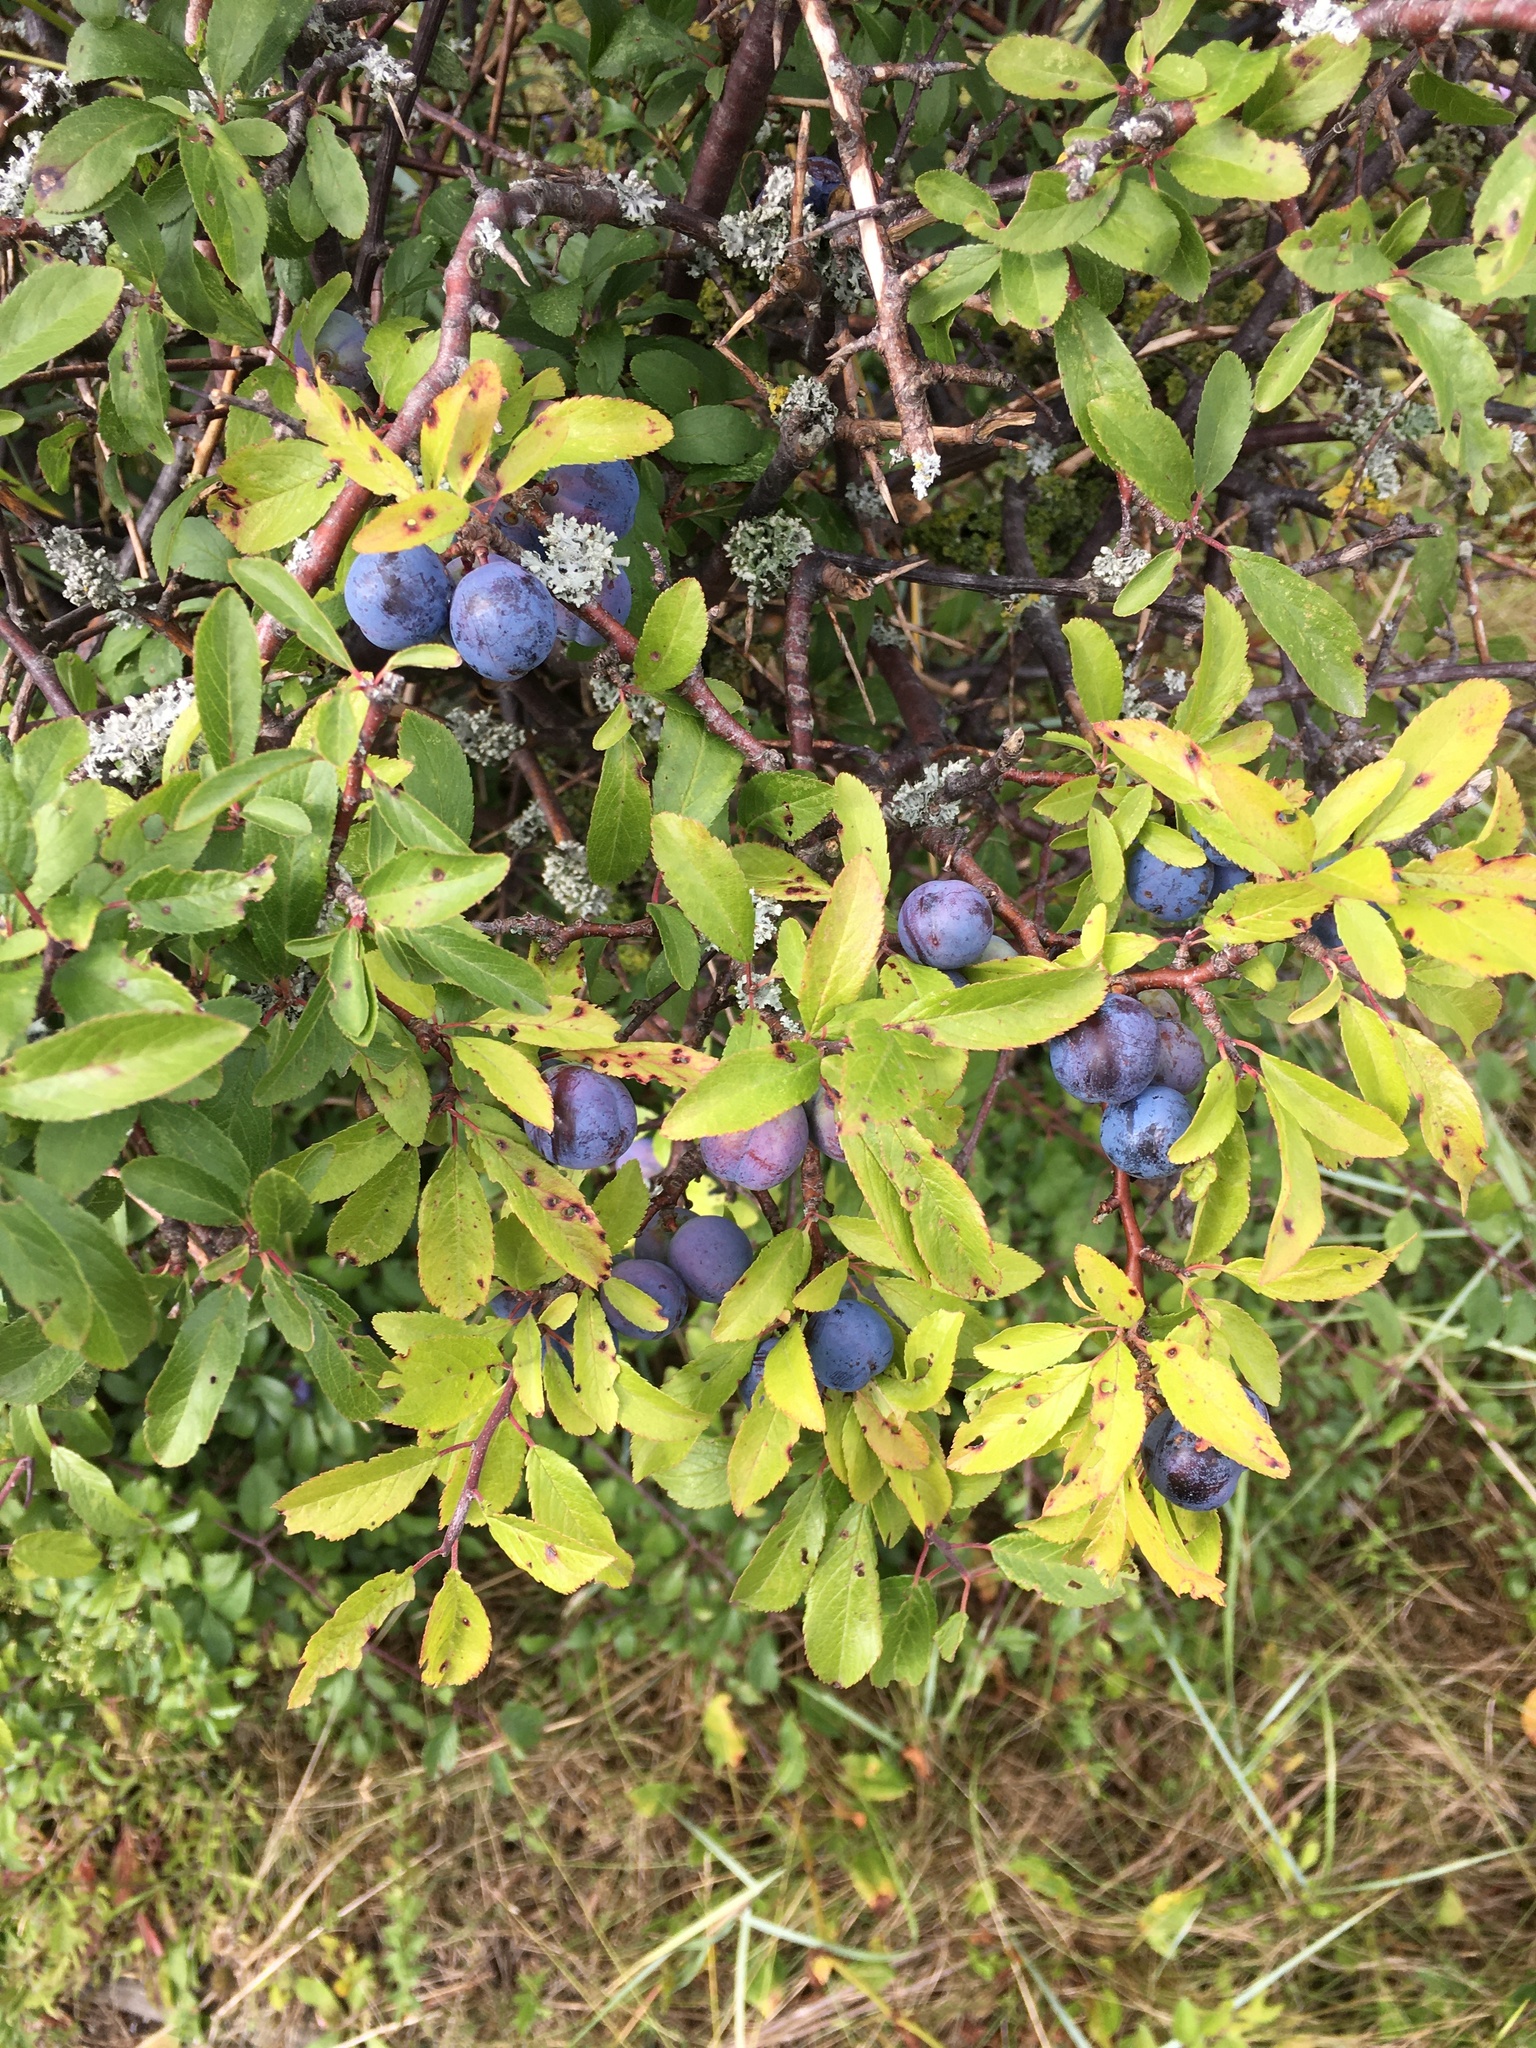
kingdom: Plantae
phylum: Tracheophyta
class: Magnoliopsida
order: Rosales
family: Rosaceae
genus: Prunus
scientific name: Prunus spinosa
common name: Blackthorn
